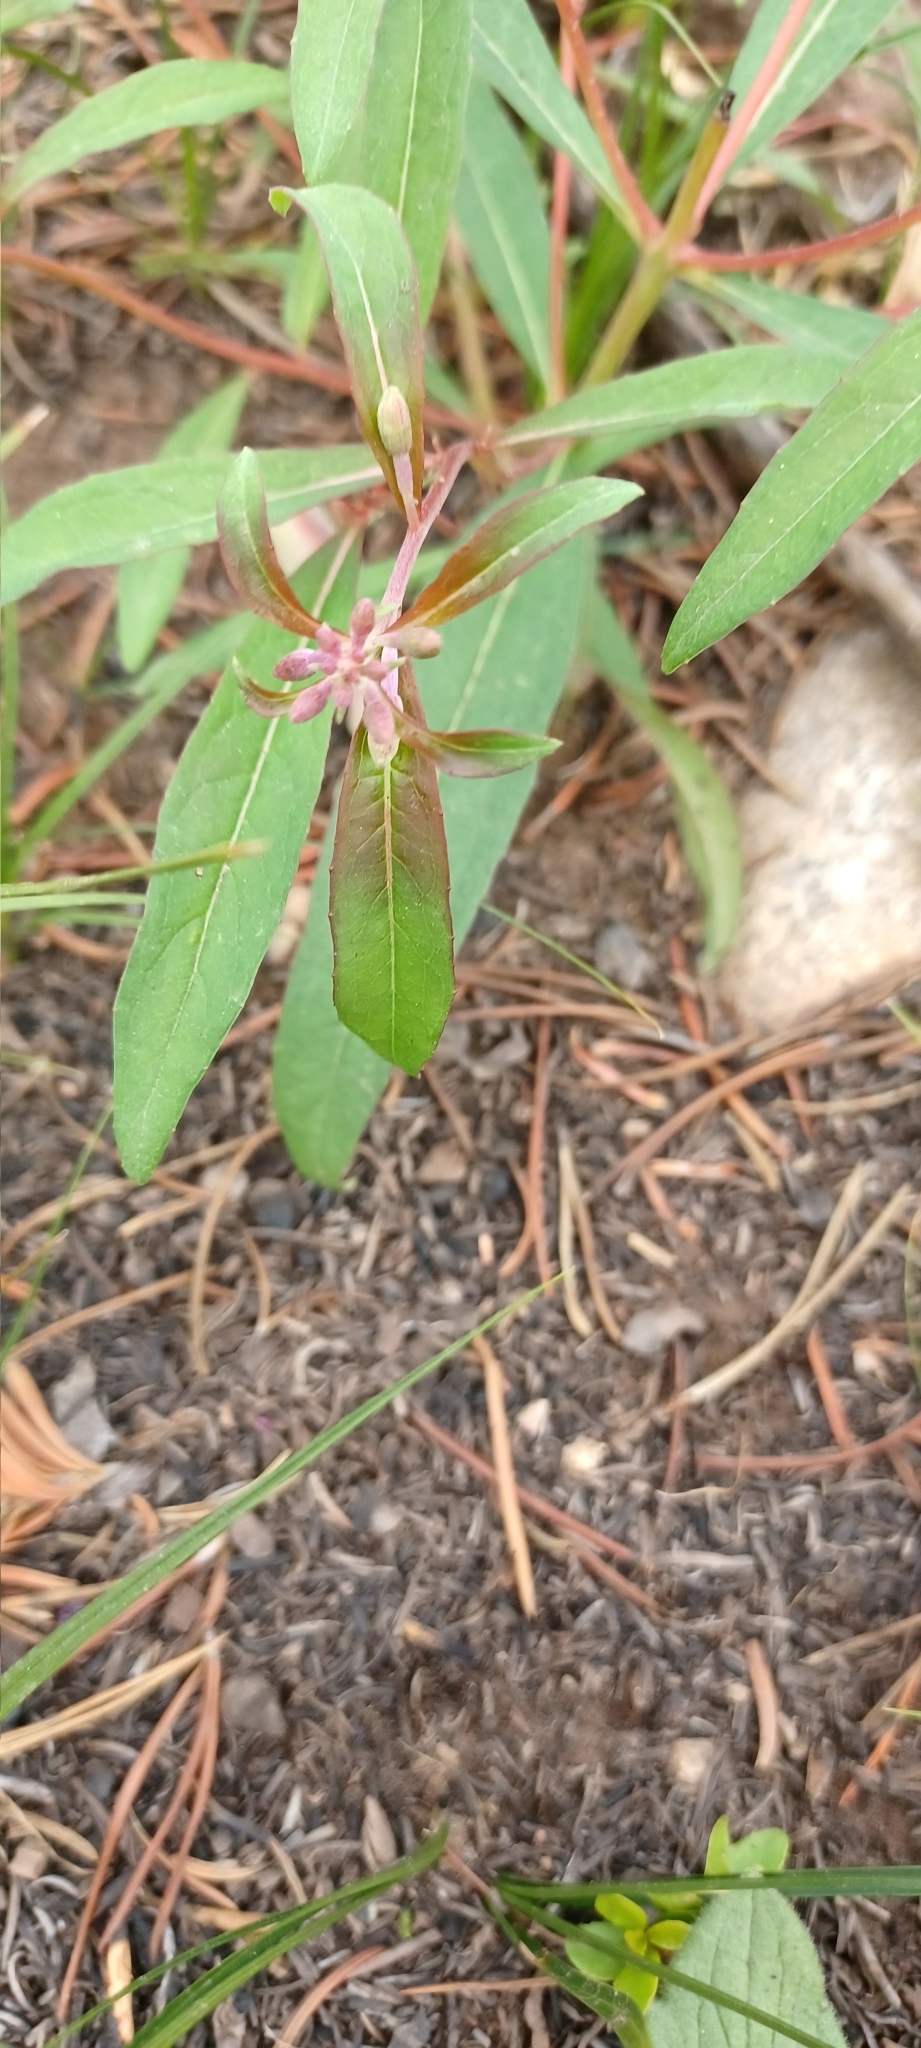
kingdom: Plantae
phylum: Tracheophyta
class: Magnoliopsida
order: Myrtales
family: Onagraceae
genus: Chamaenerion
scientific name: Chamaenerion angustifolium
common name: Fireweed
